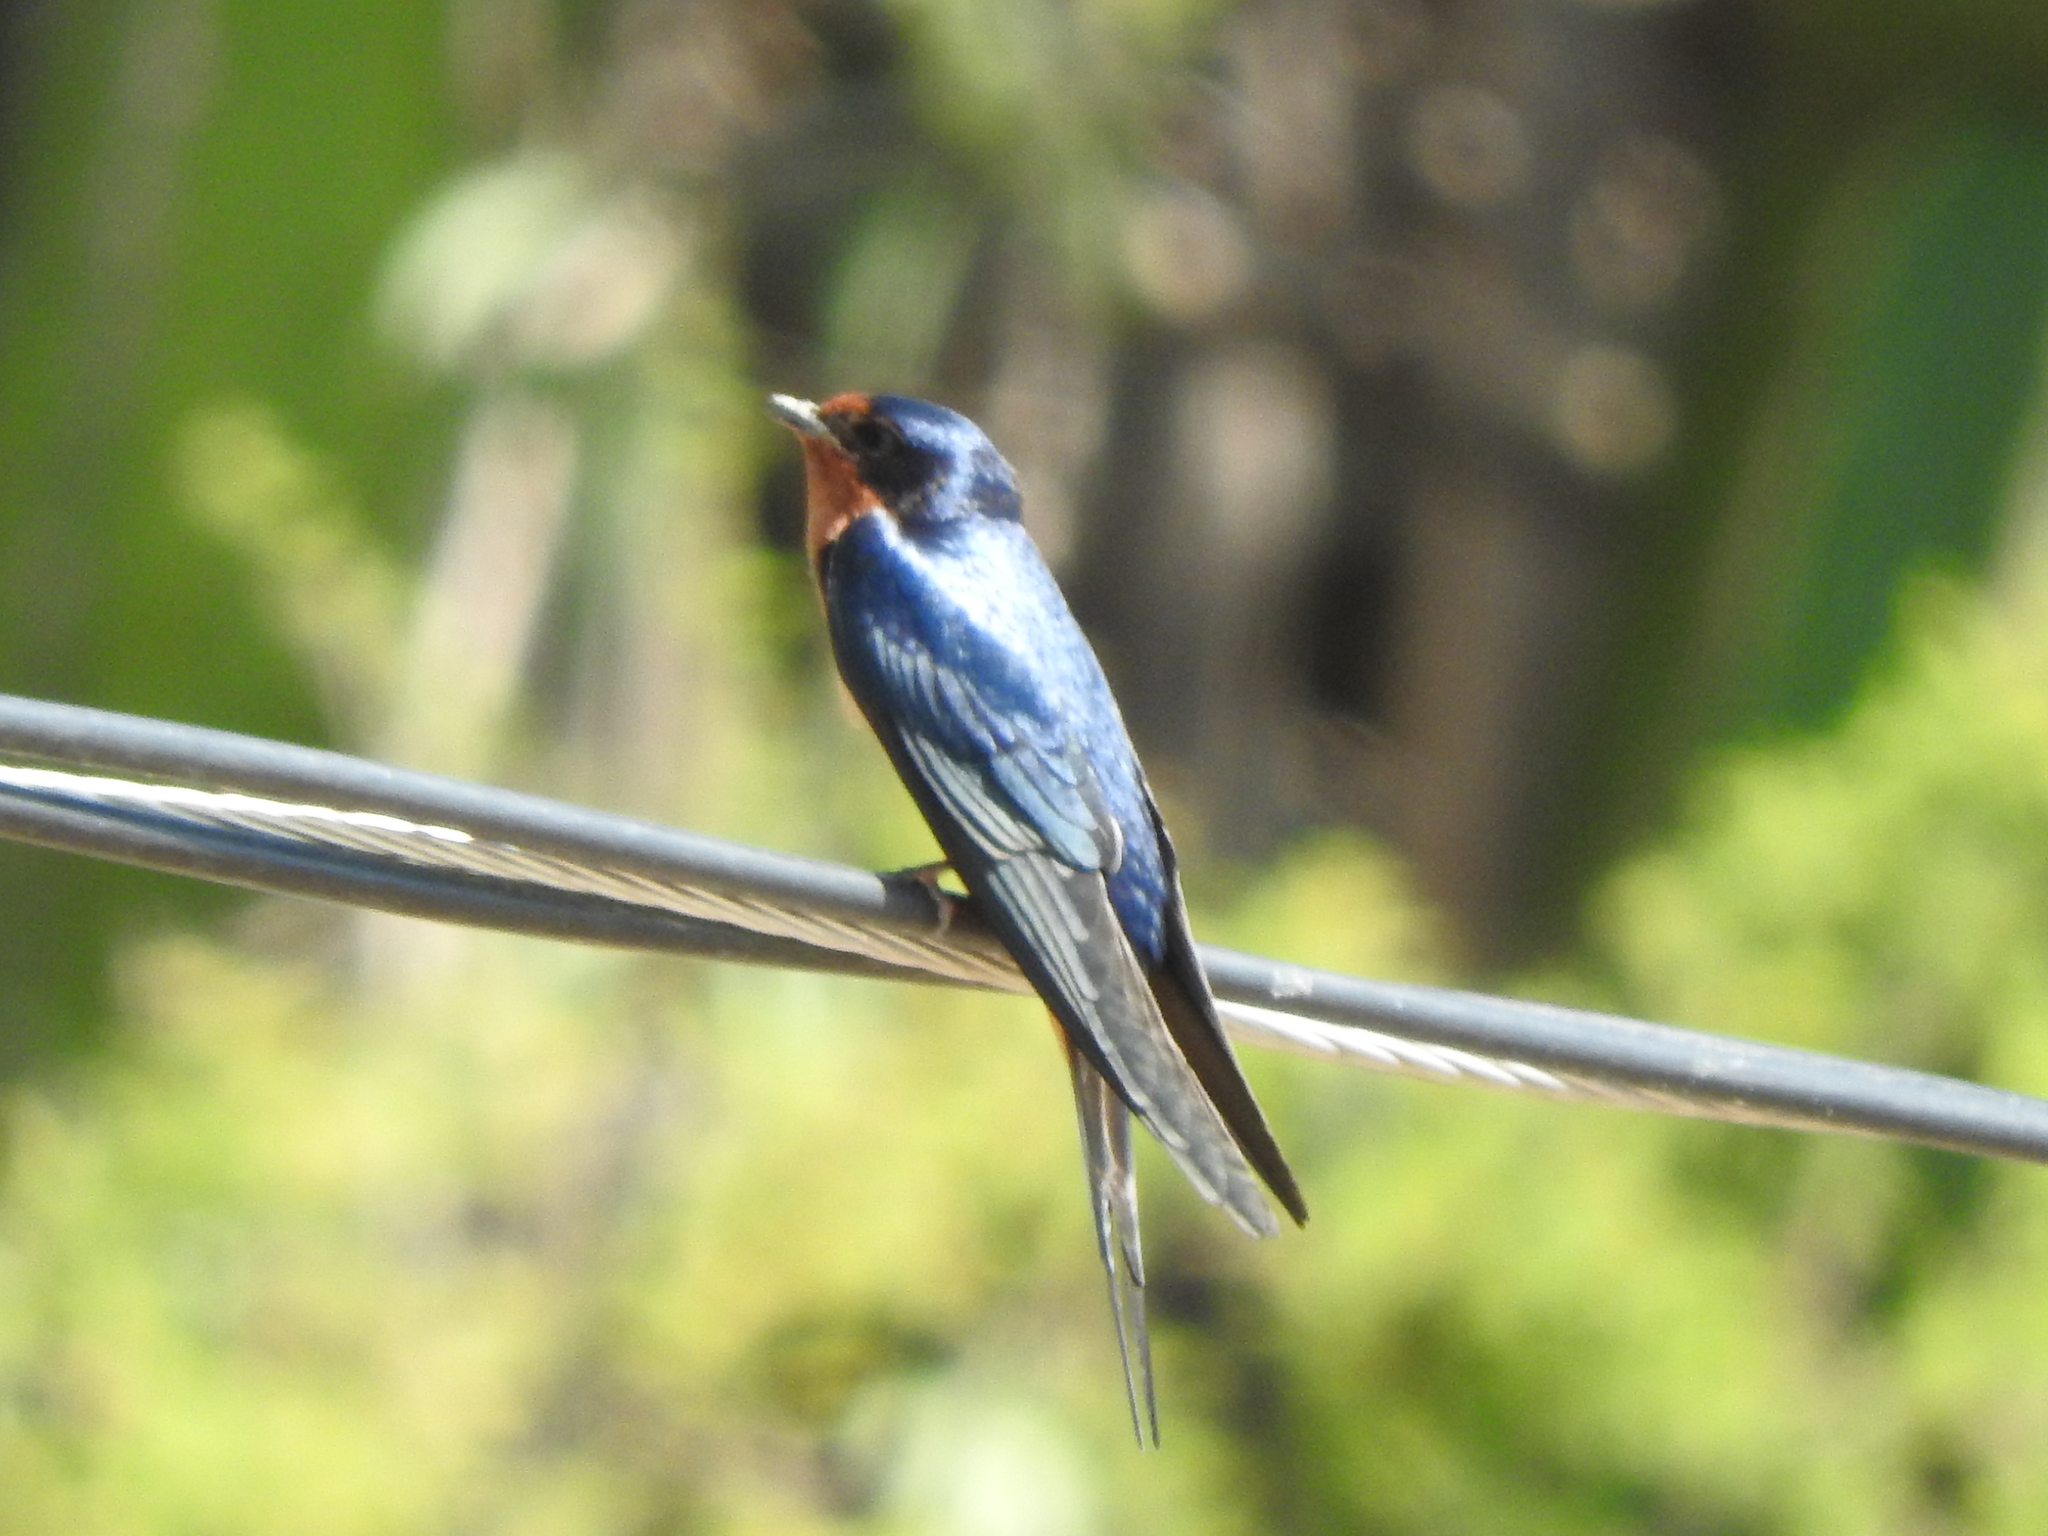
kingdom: Animalia
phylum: Chordata
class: Aves
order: Passeriformes
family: Hirundinidae
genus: Hirundo
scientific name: Hirundo rustica
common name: Barn swallow
